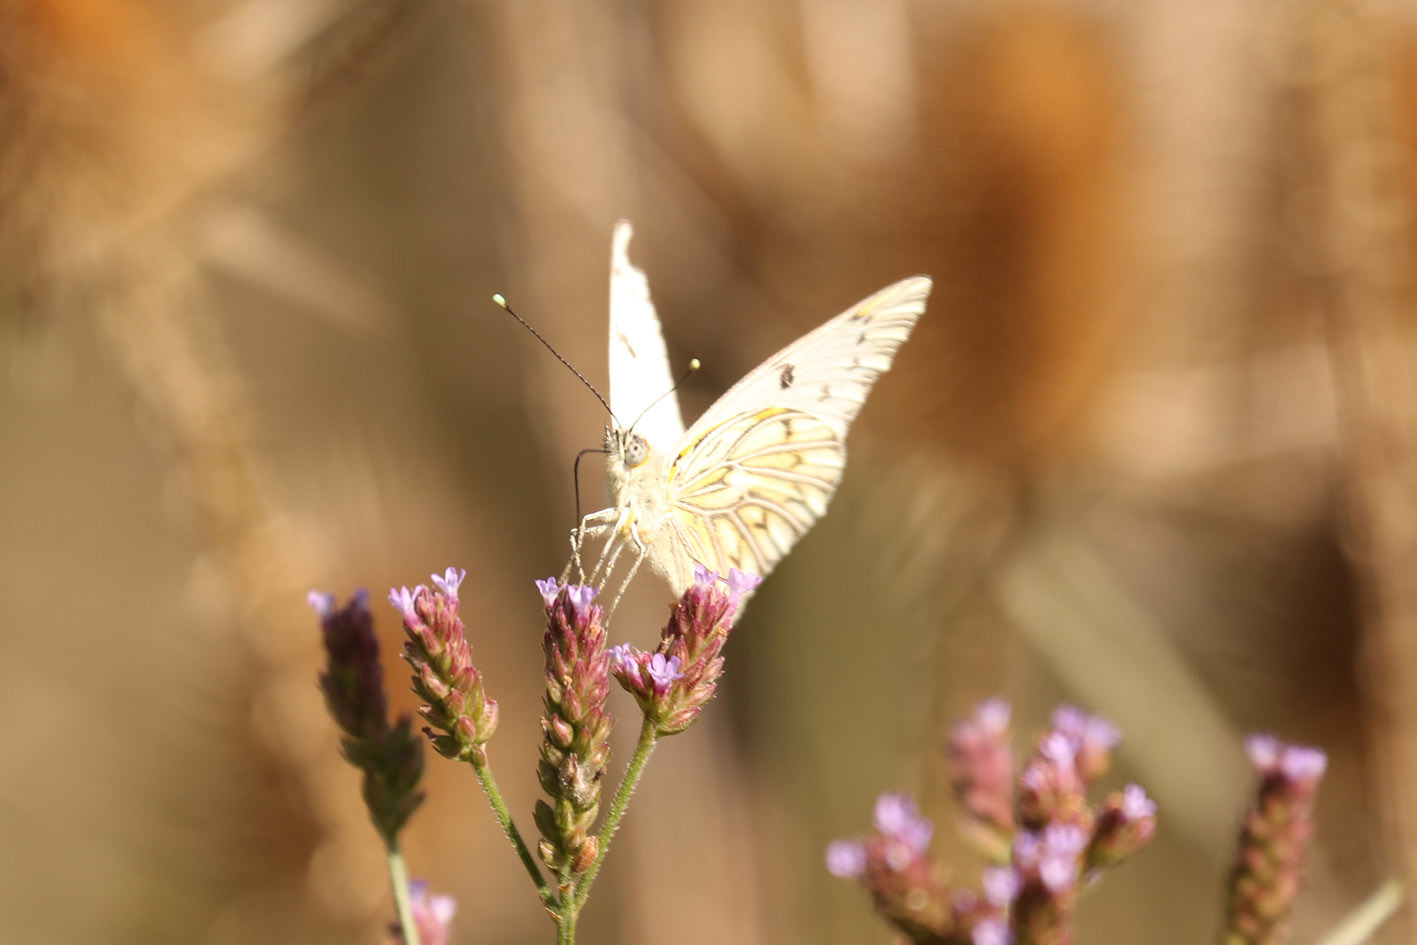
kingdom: Animalia
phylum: Arthropoda
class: Insecta
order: Lepidoptera
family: Pieridae
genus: Tatochila
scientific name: Tatochila autodice
